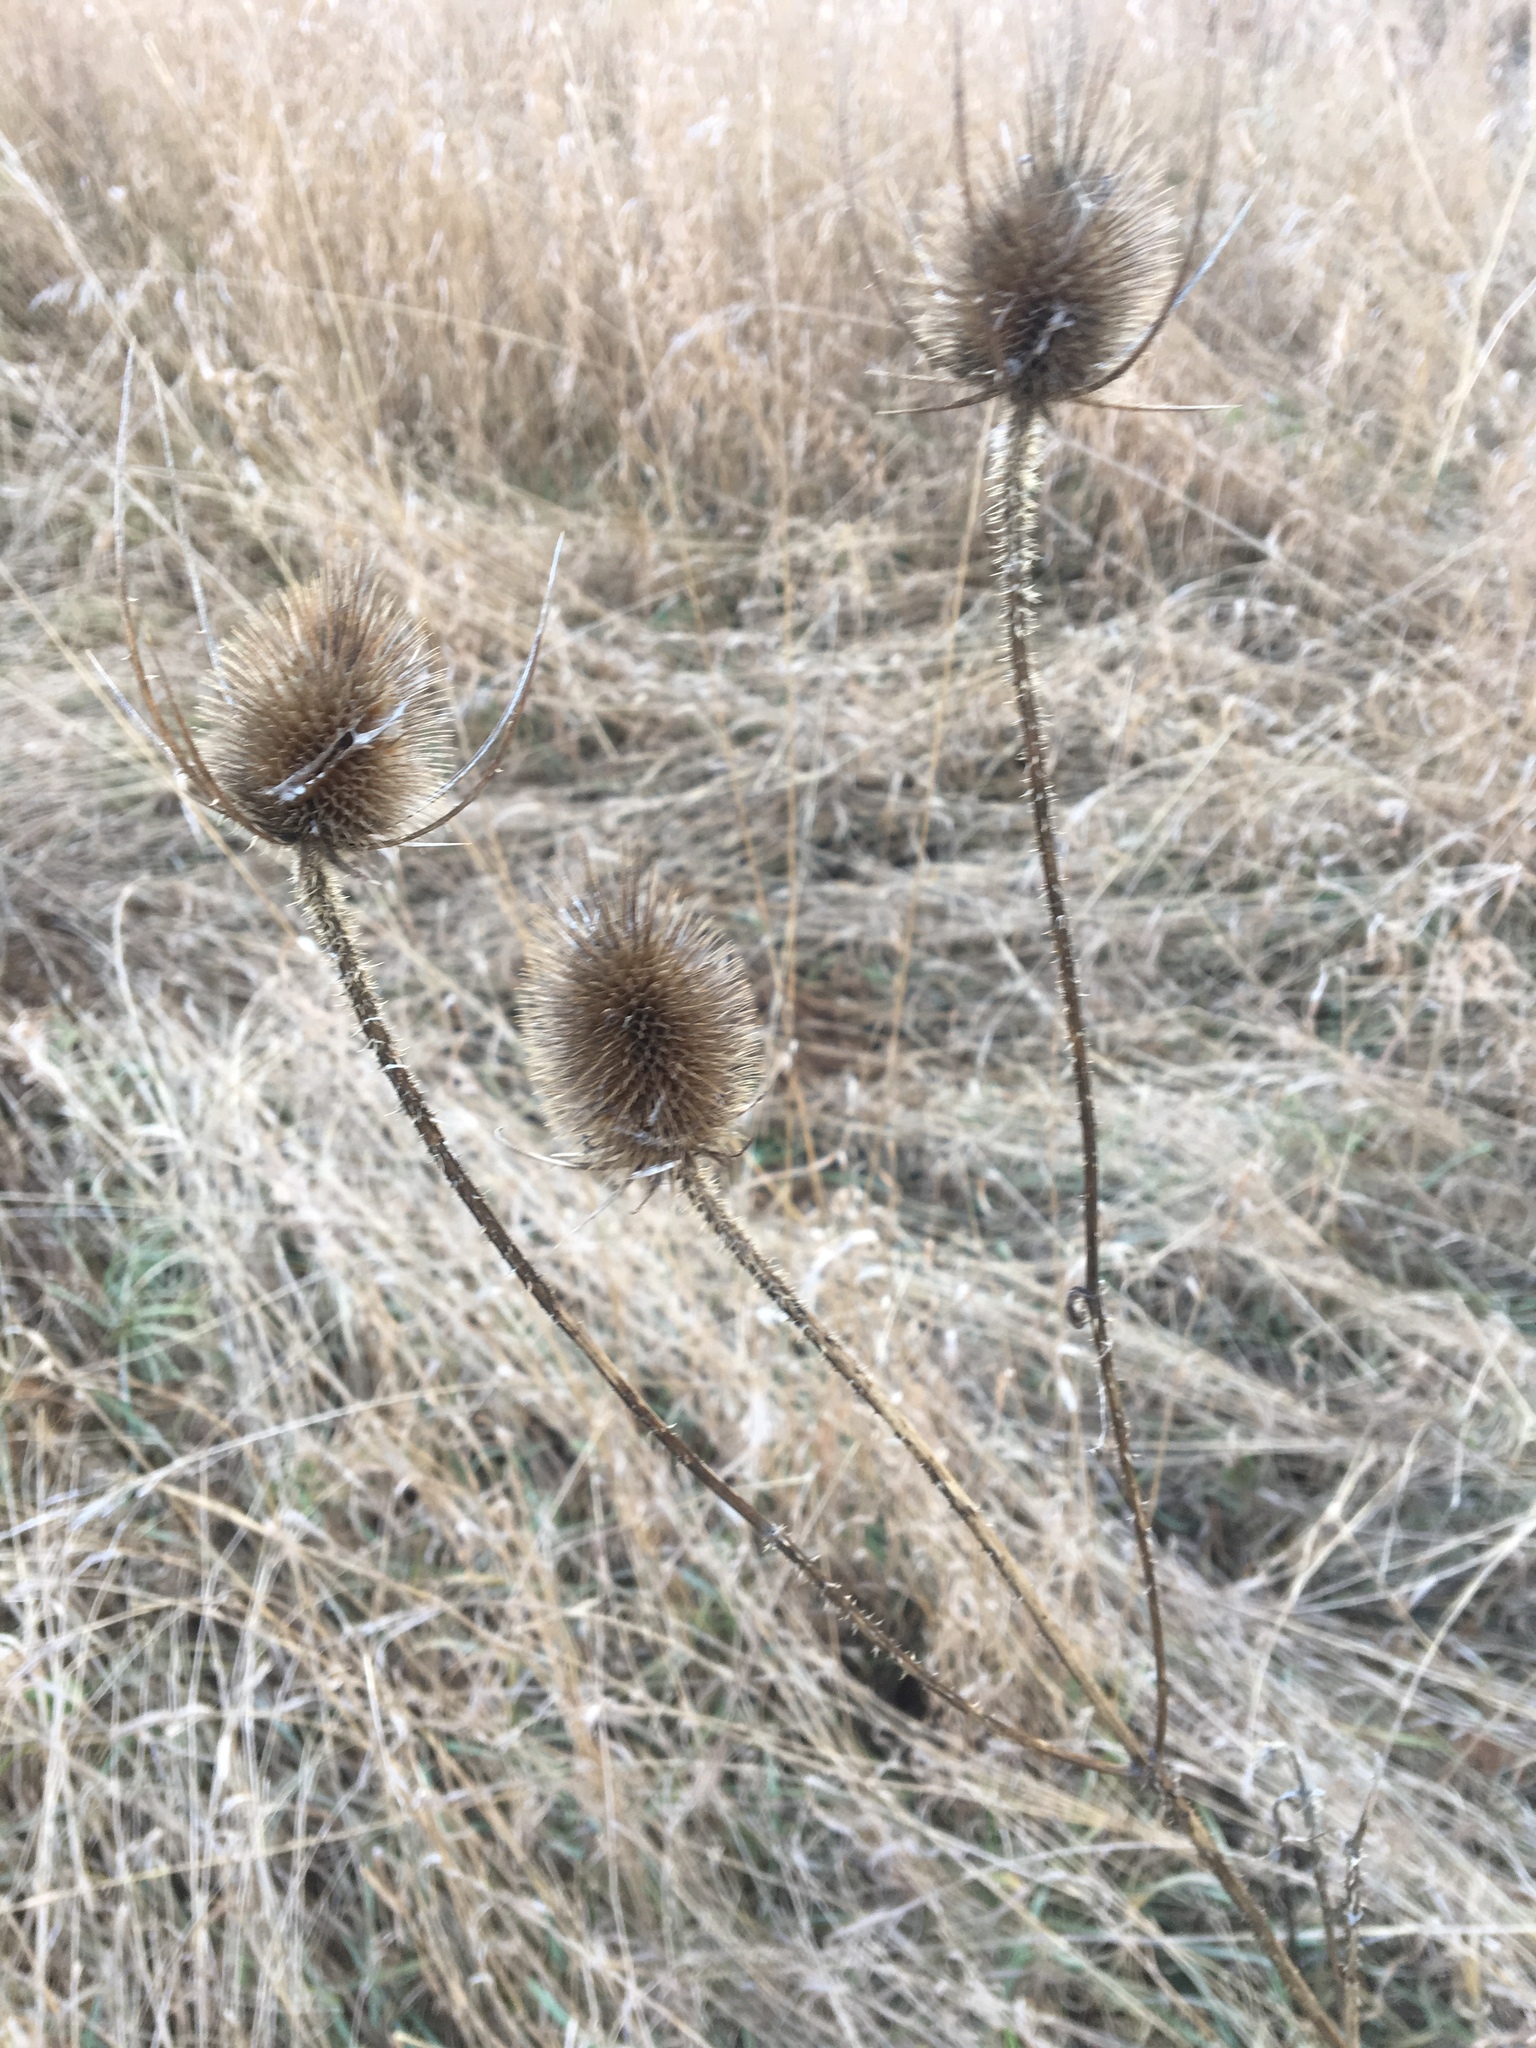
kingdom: Plantae
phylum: Tracheophyta
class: Magnoliopsida
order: Dipsacales
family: Caprifoliaceae
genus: Dipsacus
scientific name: Dipsacus fullonum
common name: Teasel
